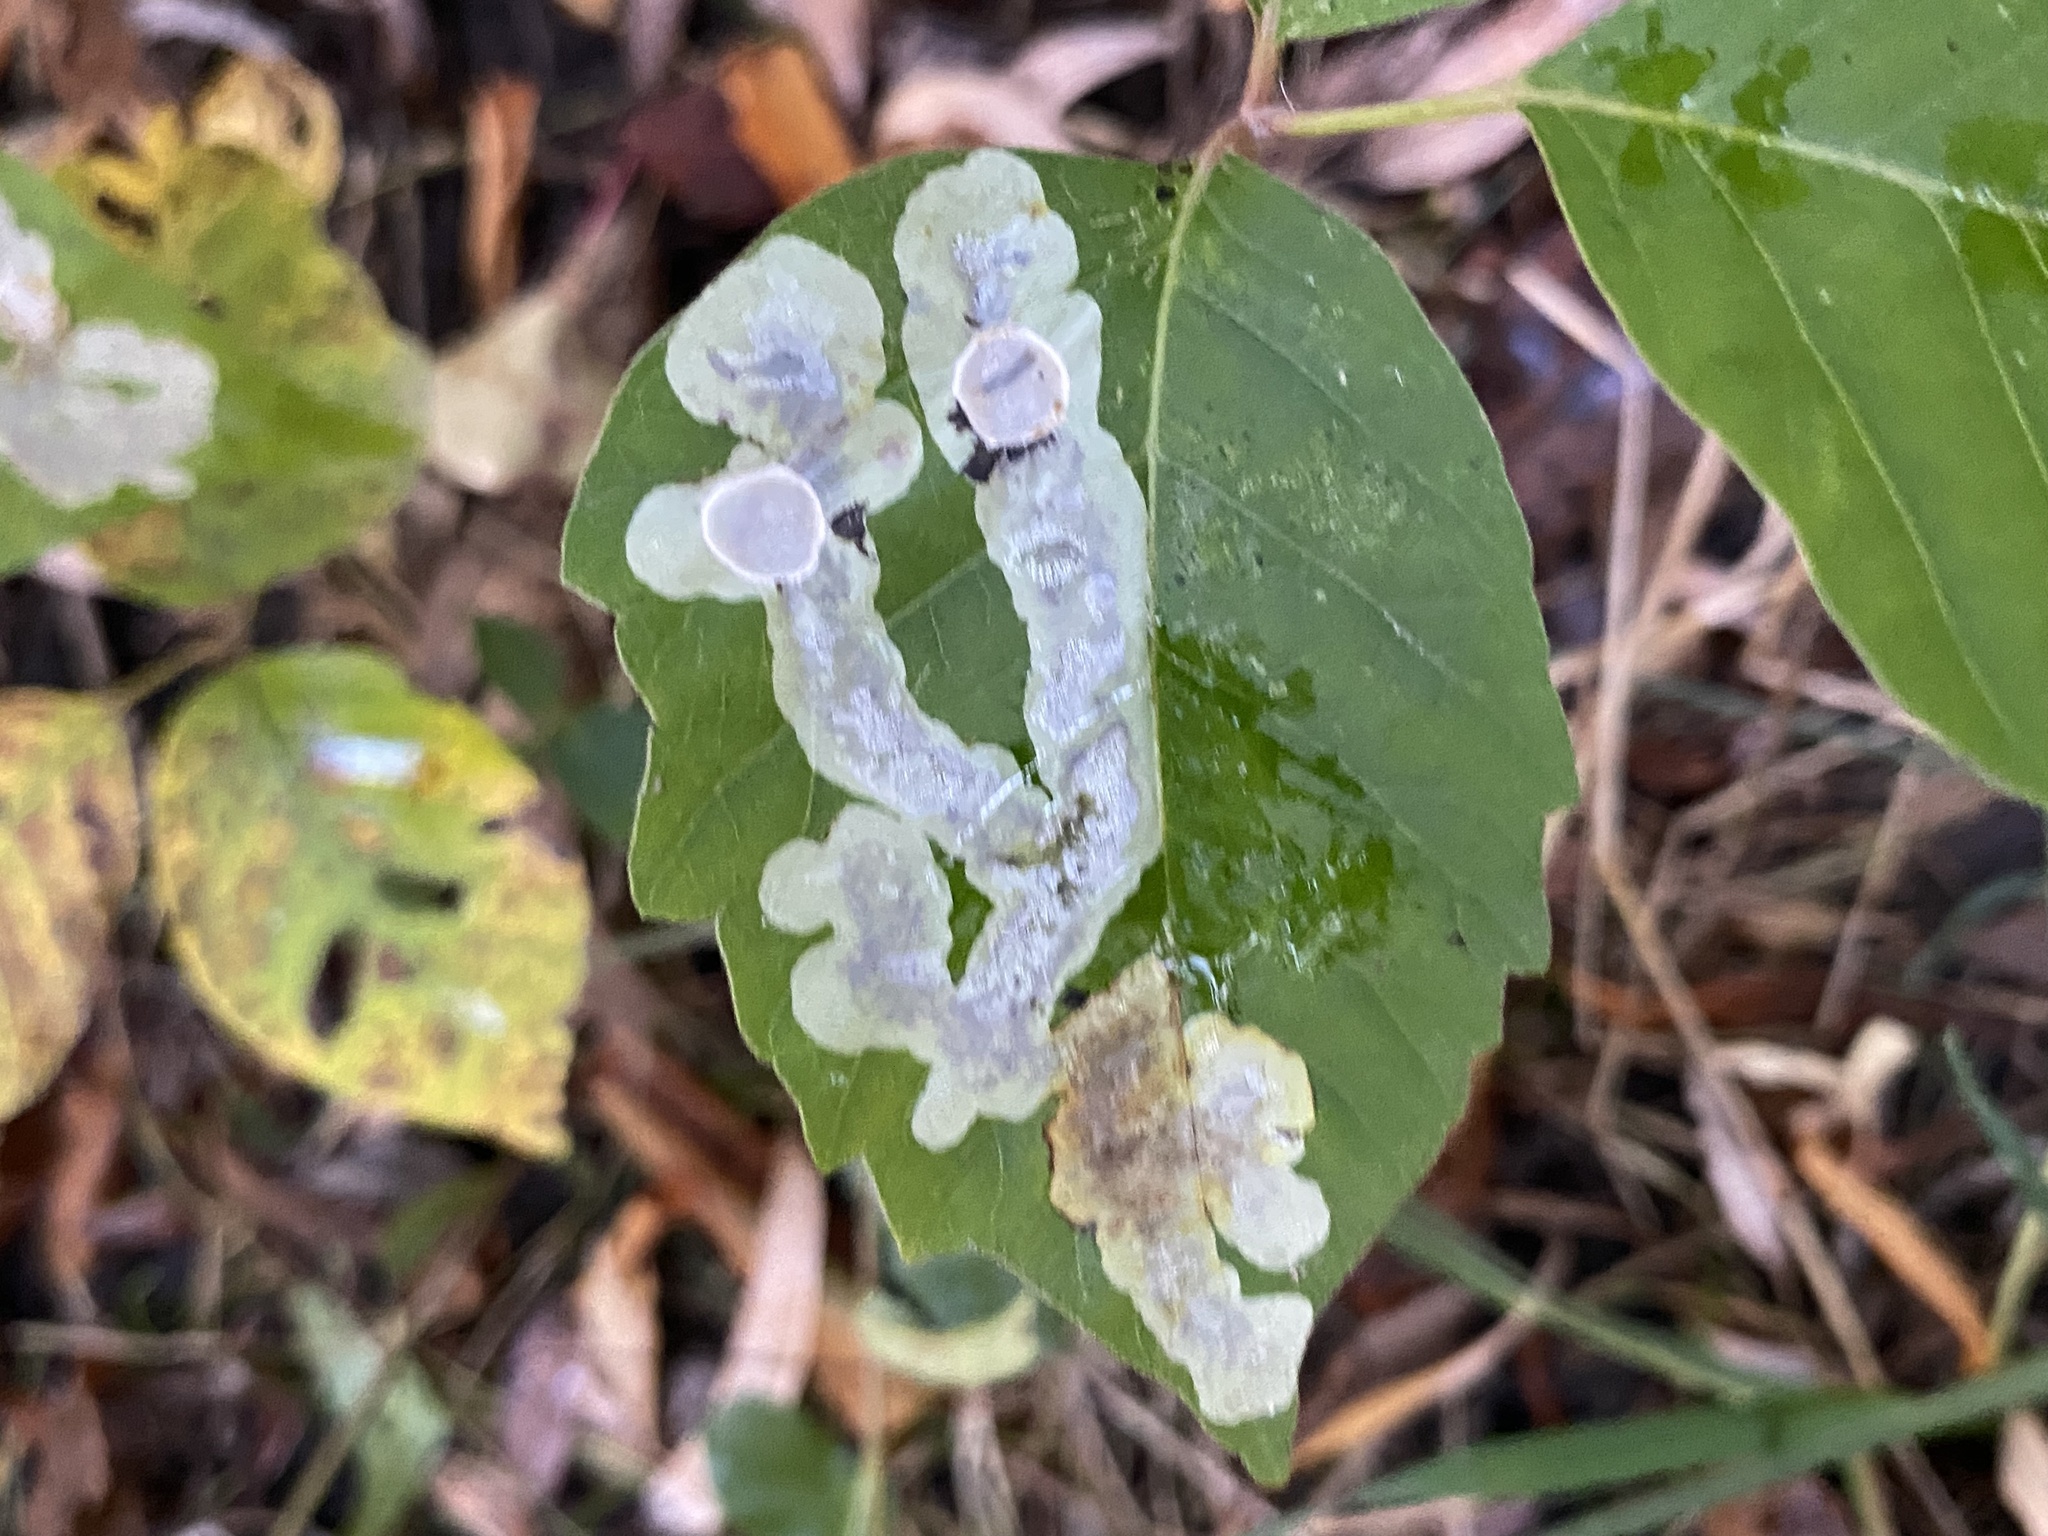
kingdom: Animalia
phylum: Arthropoda
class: Insecta
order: Lepidoptera
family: Gracillariidae
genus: Cameraria
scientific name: Cameraria guttifinitella
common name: Poison ivy leaf-miner moth
